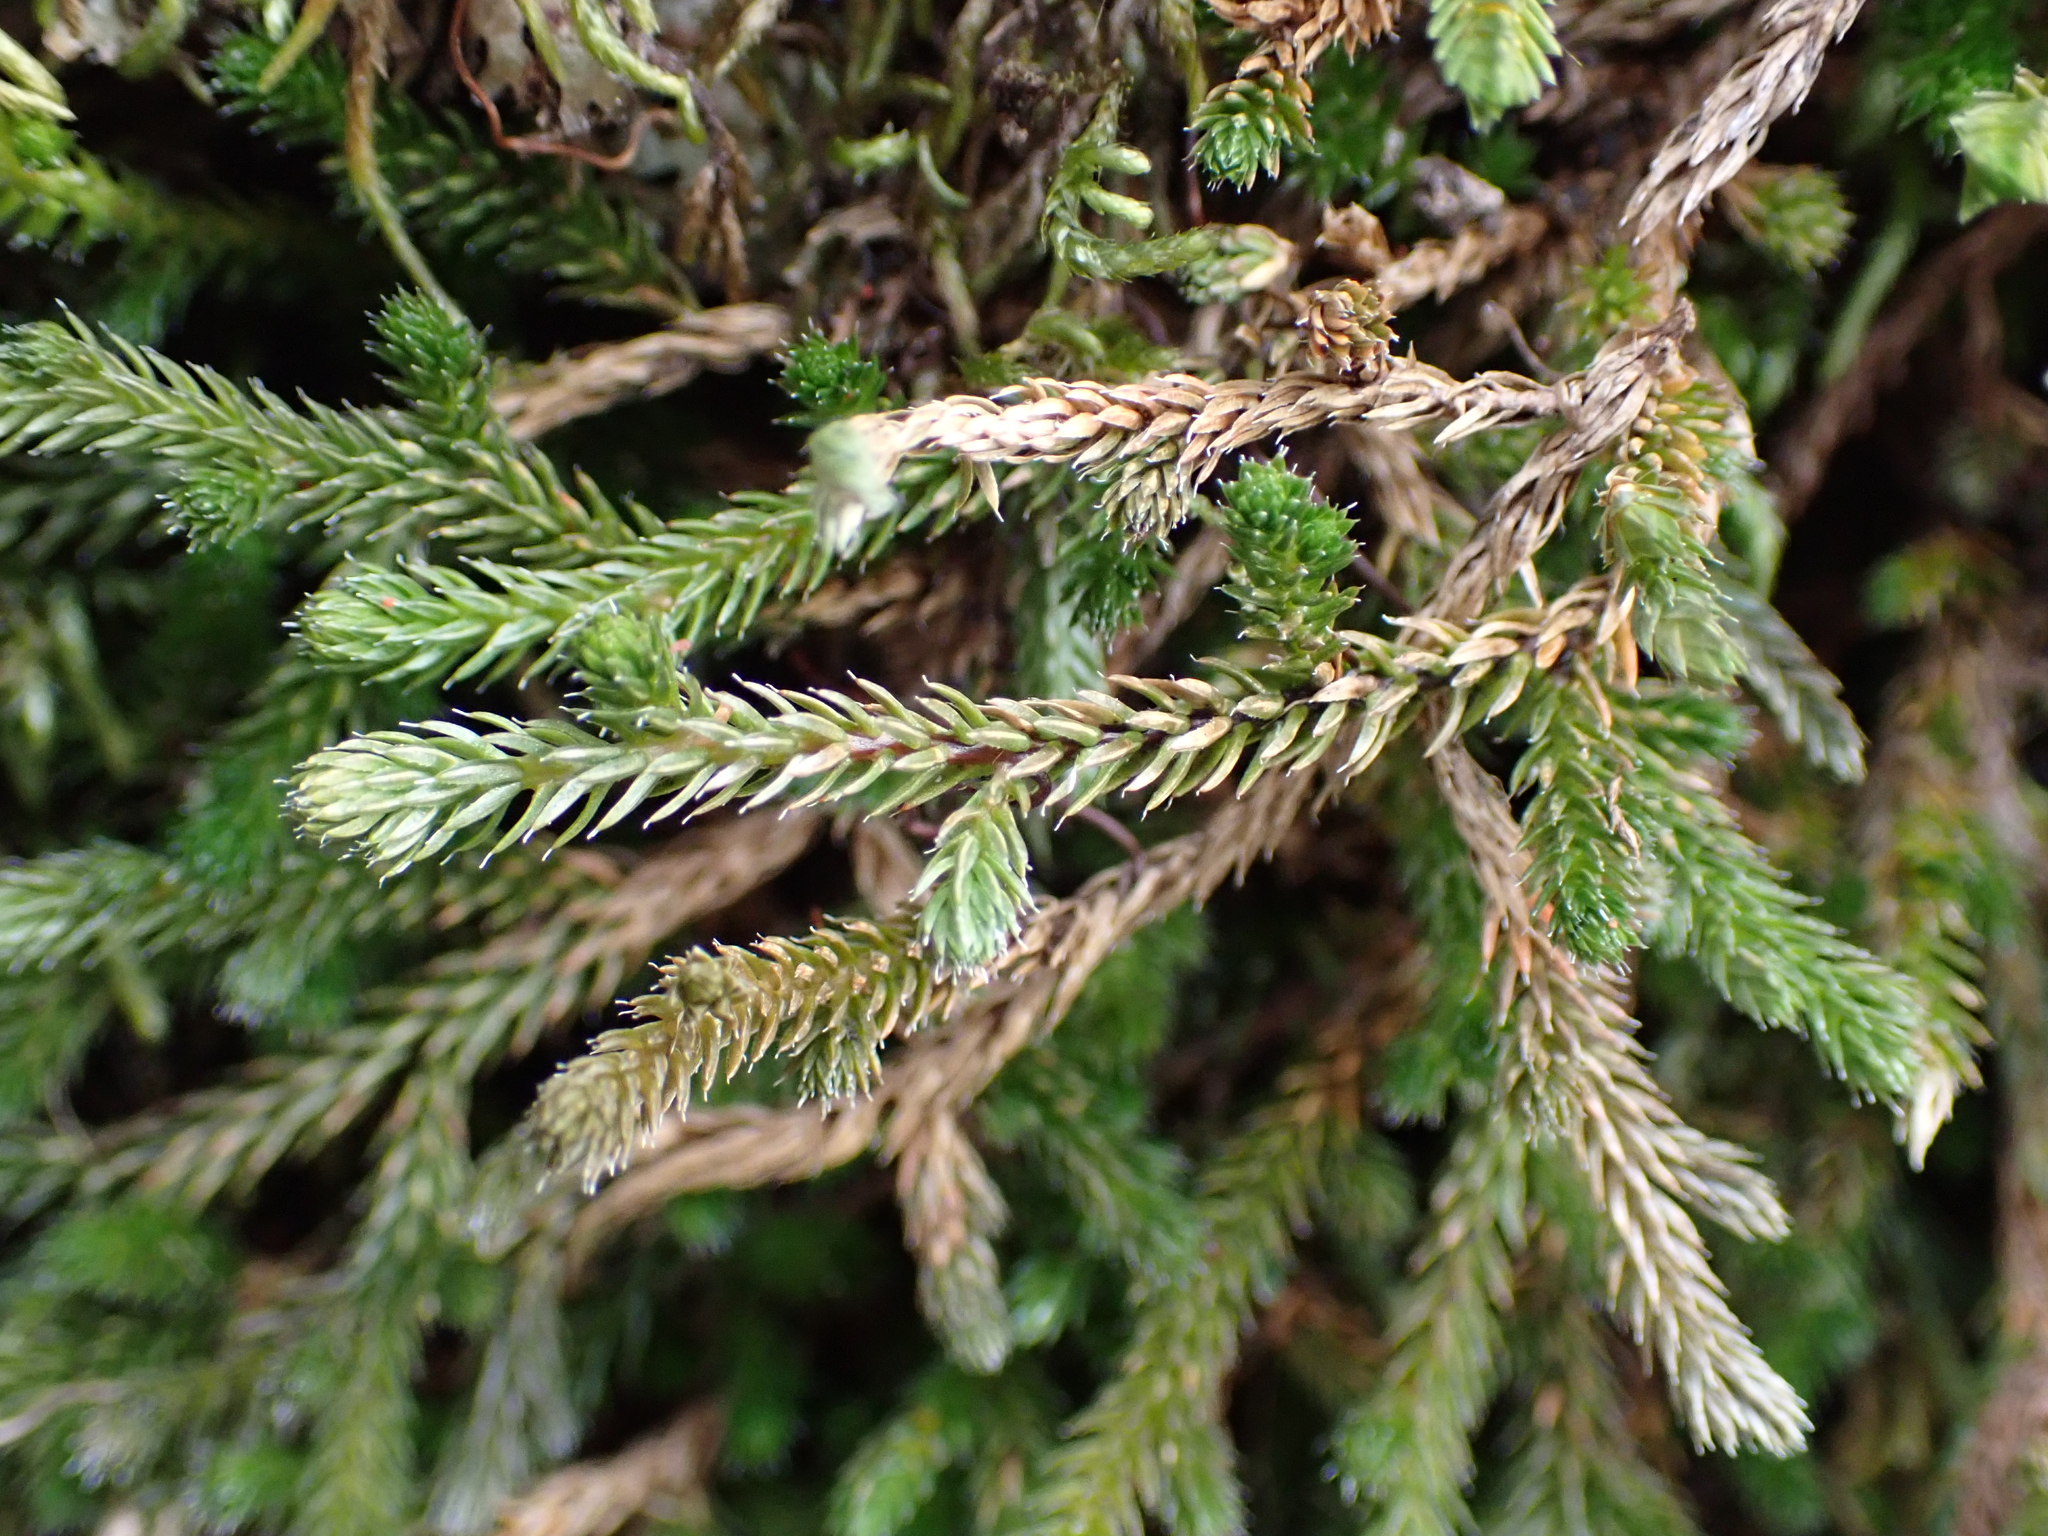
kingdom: Plantae
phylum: Tracheophyta
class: Lycopodiopsida
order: Selaginellales
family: Selaginellaceae
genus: Selaginella
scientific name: Selaginella wallacei
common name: Wallace's selaginella
